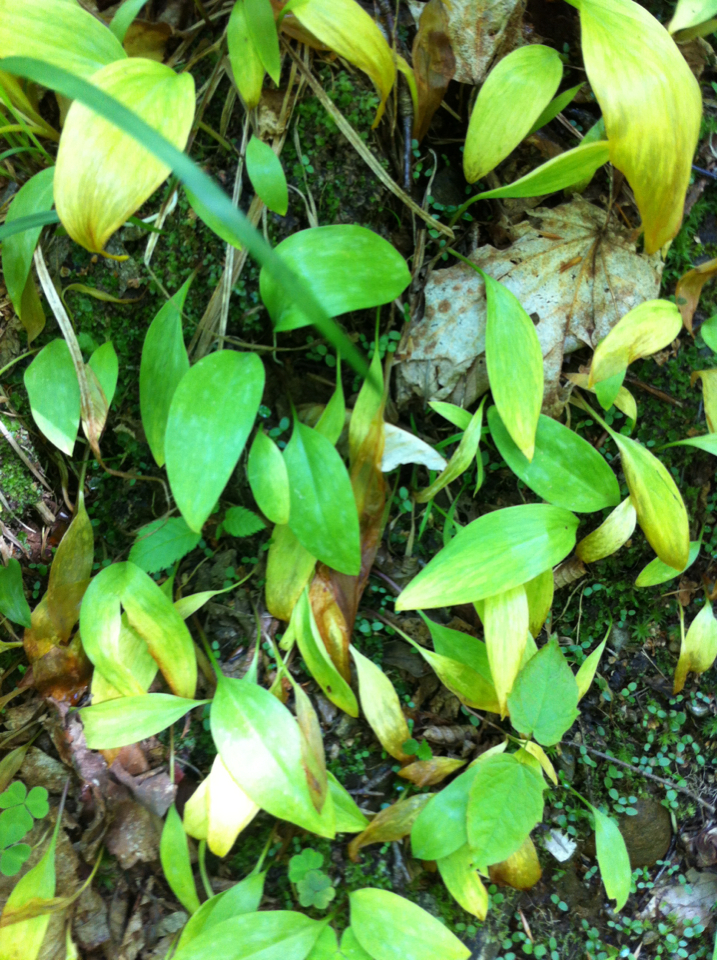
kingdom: Plantae
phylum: Tracheophyta
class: Liliopsida
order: Liliales
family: Liliaceae
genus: Erythronium
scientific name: Erythronium americanum
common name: Yellow adder's-tongue
